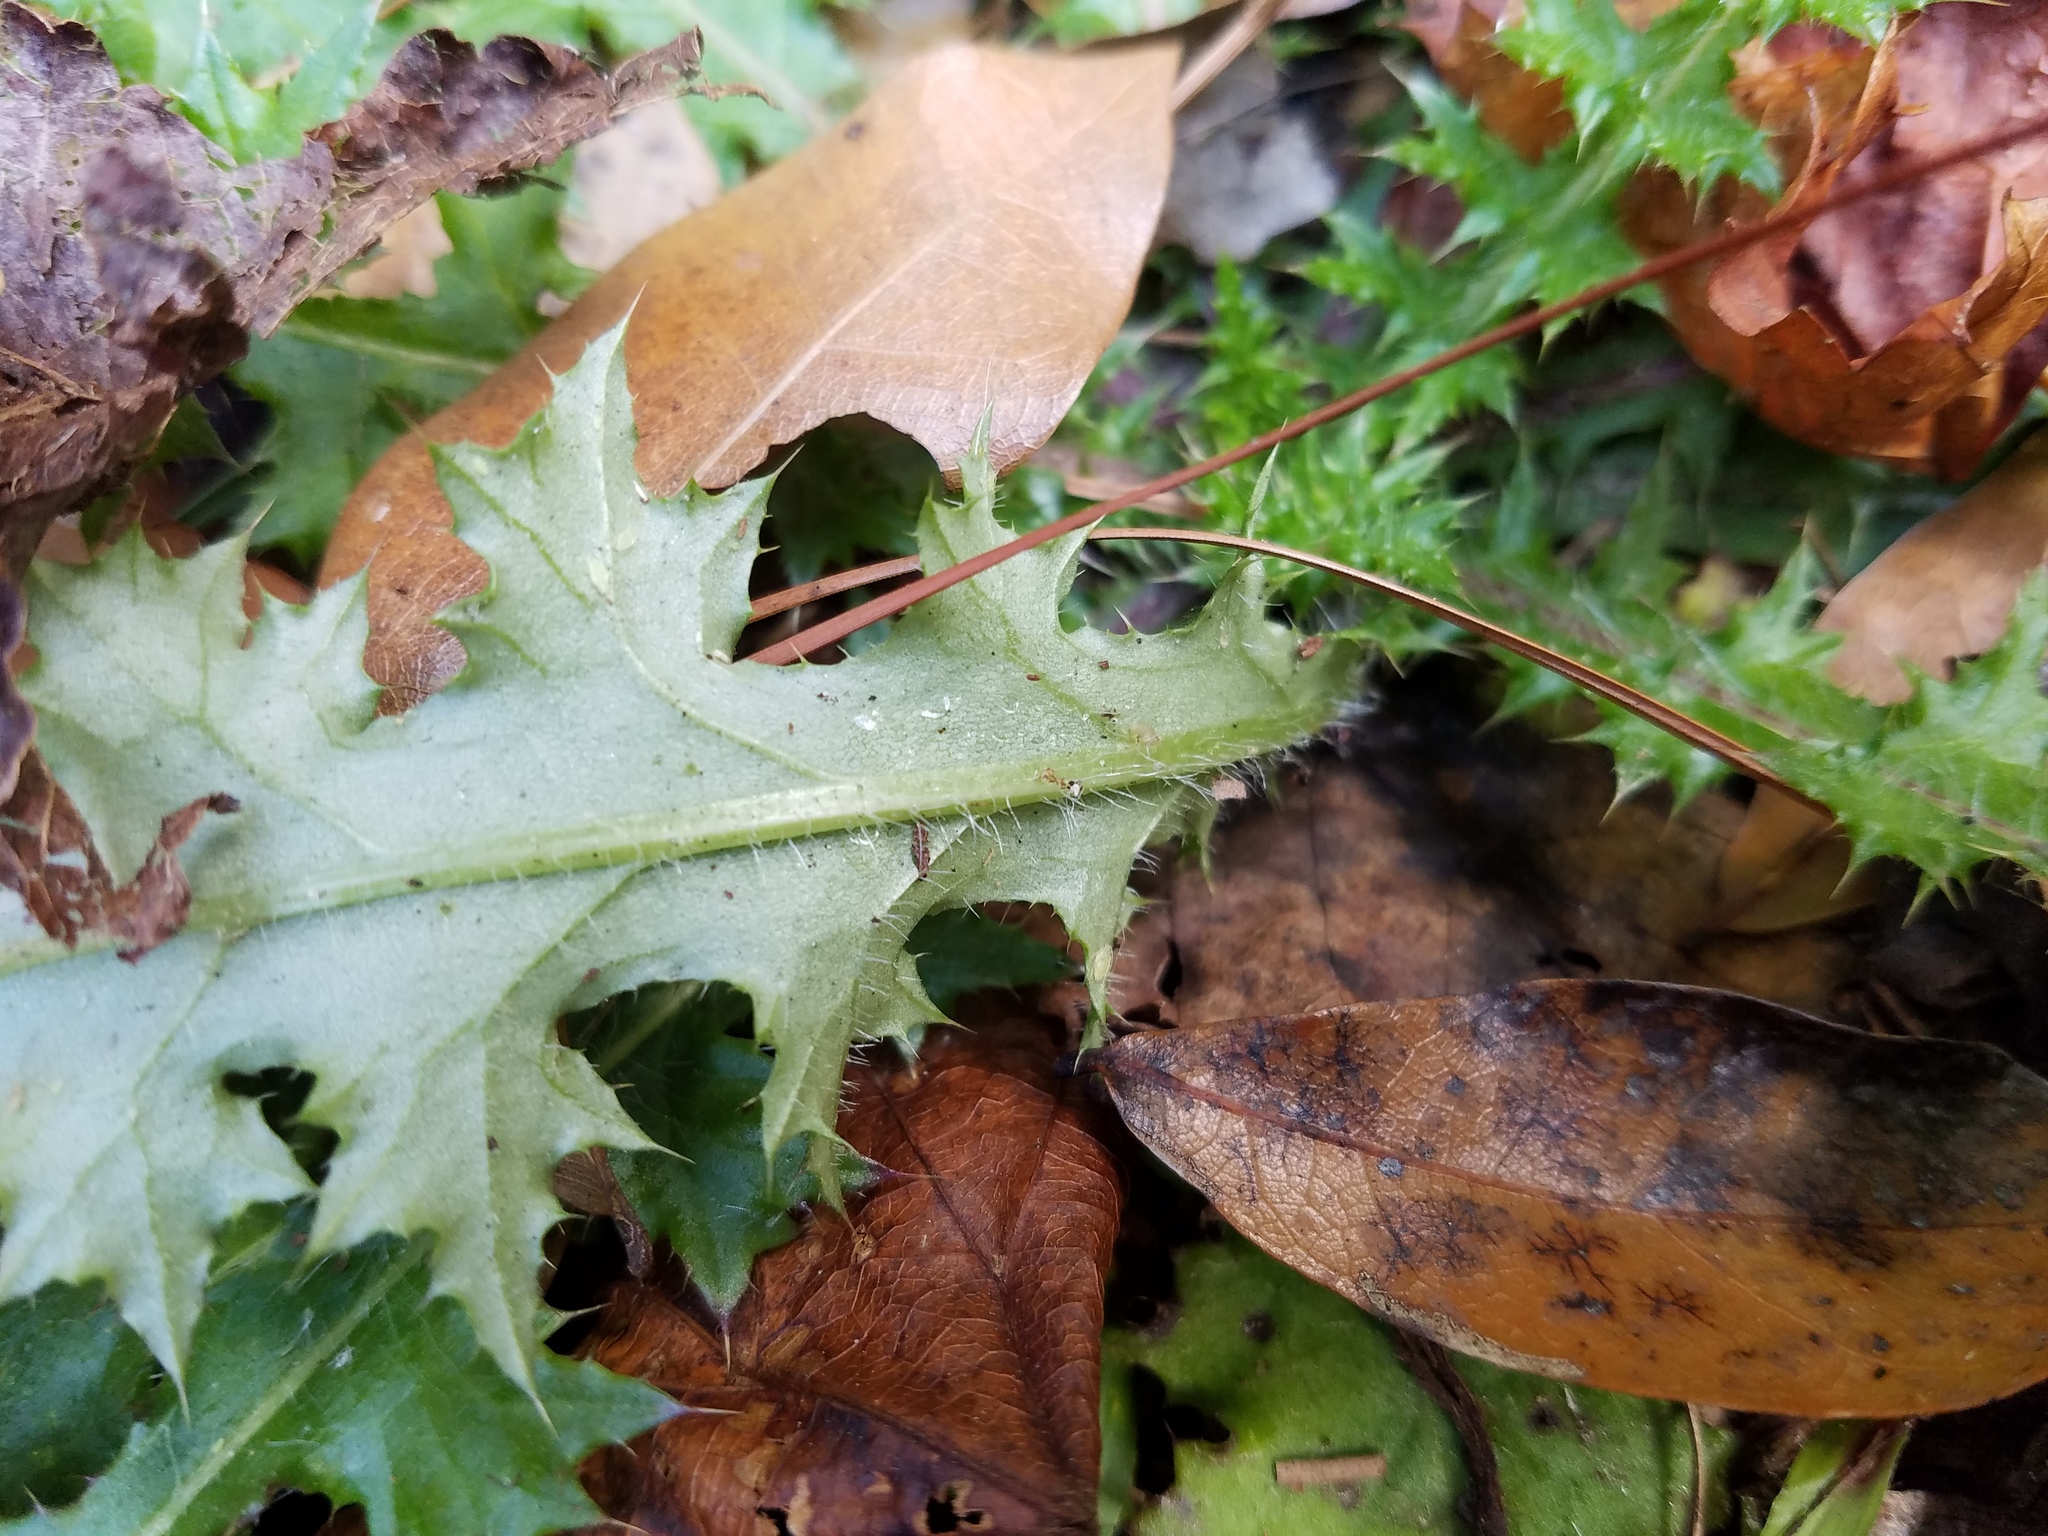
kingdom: Plantae
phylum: Tracheophyta
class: Magnoliopsida
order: Asterales
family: Asteraceae
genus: Cirsium
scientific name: Cirsium nuttalii
